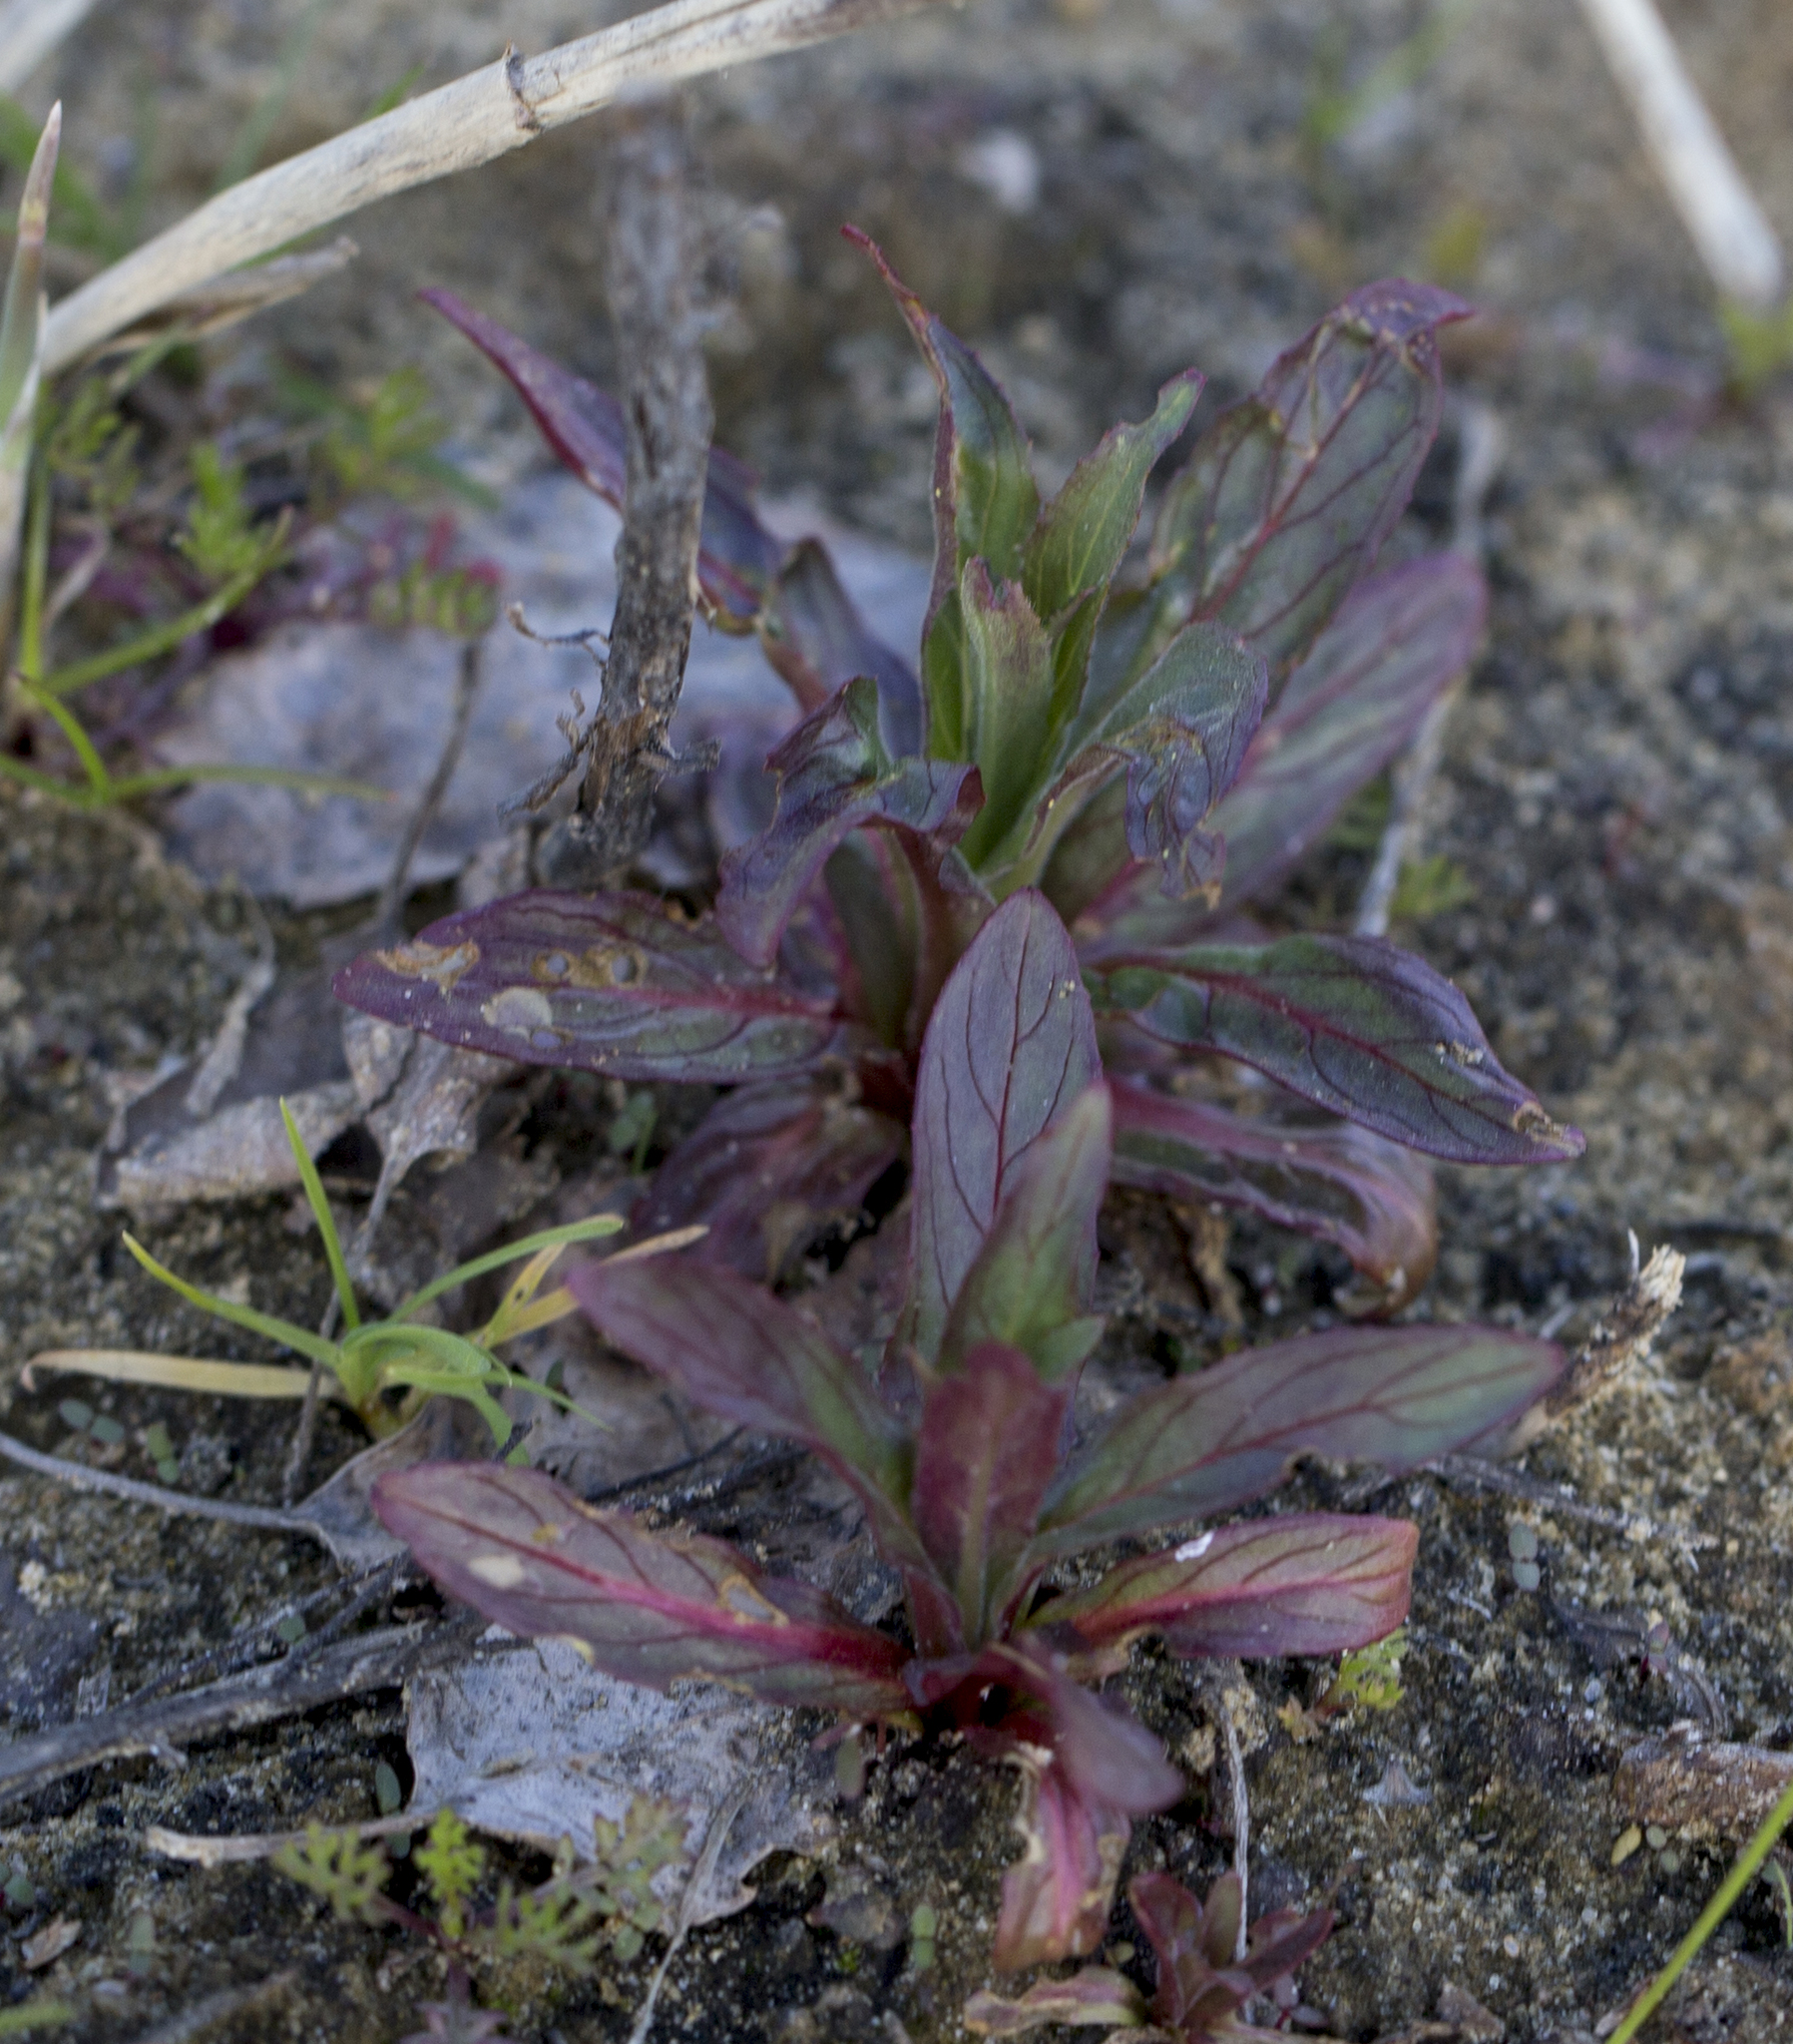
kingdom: Plantae
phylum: Tracheophyta
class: Magnoliopsida
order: Myrtales
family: Onagraceae
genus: Epilobium
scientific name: Epilobium hirsutum
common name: Great willowherb
